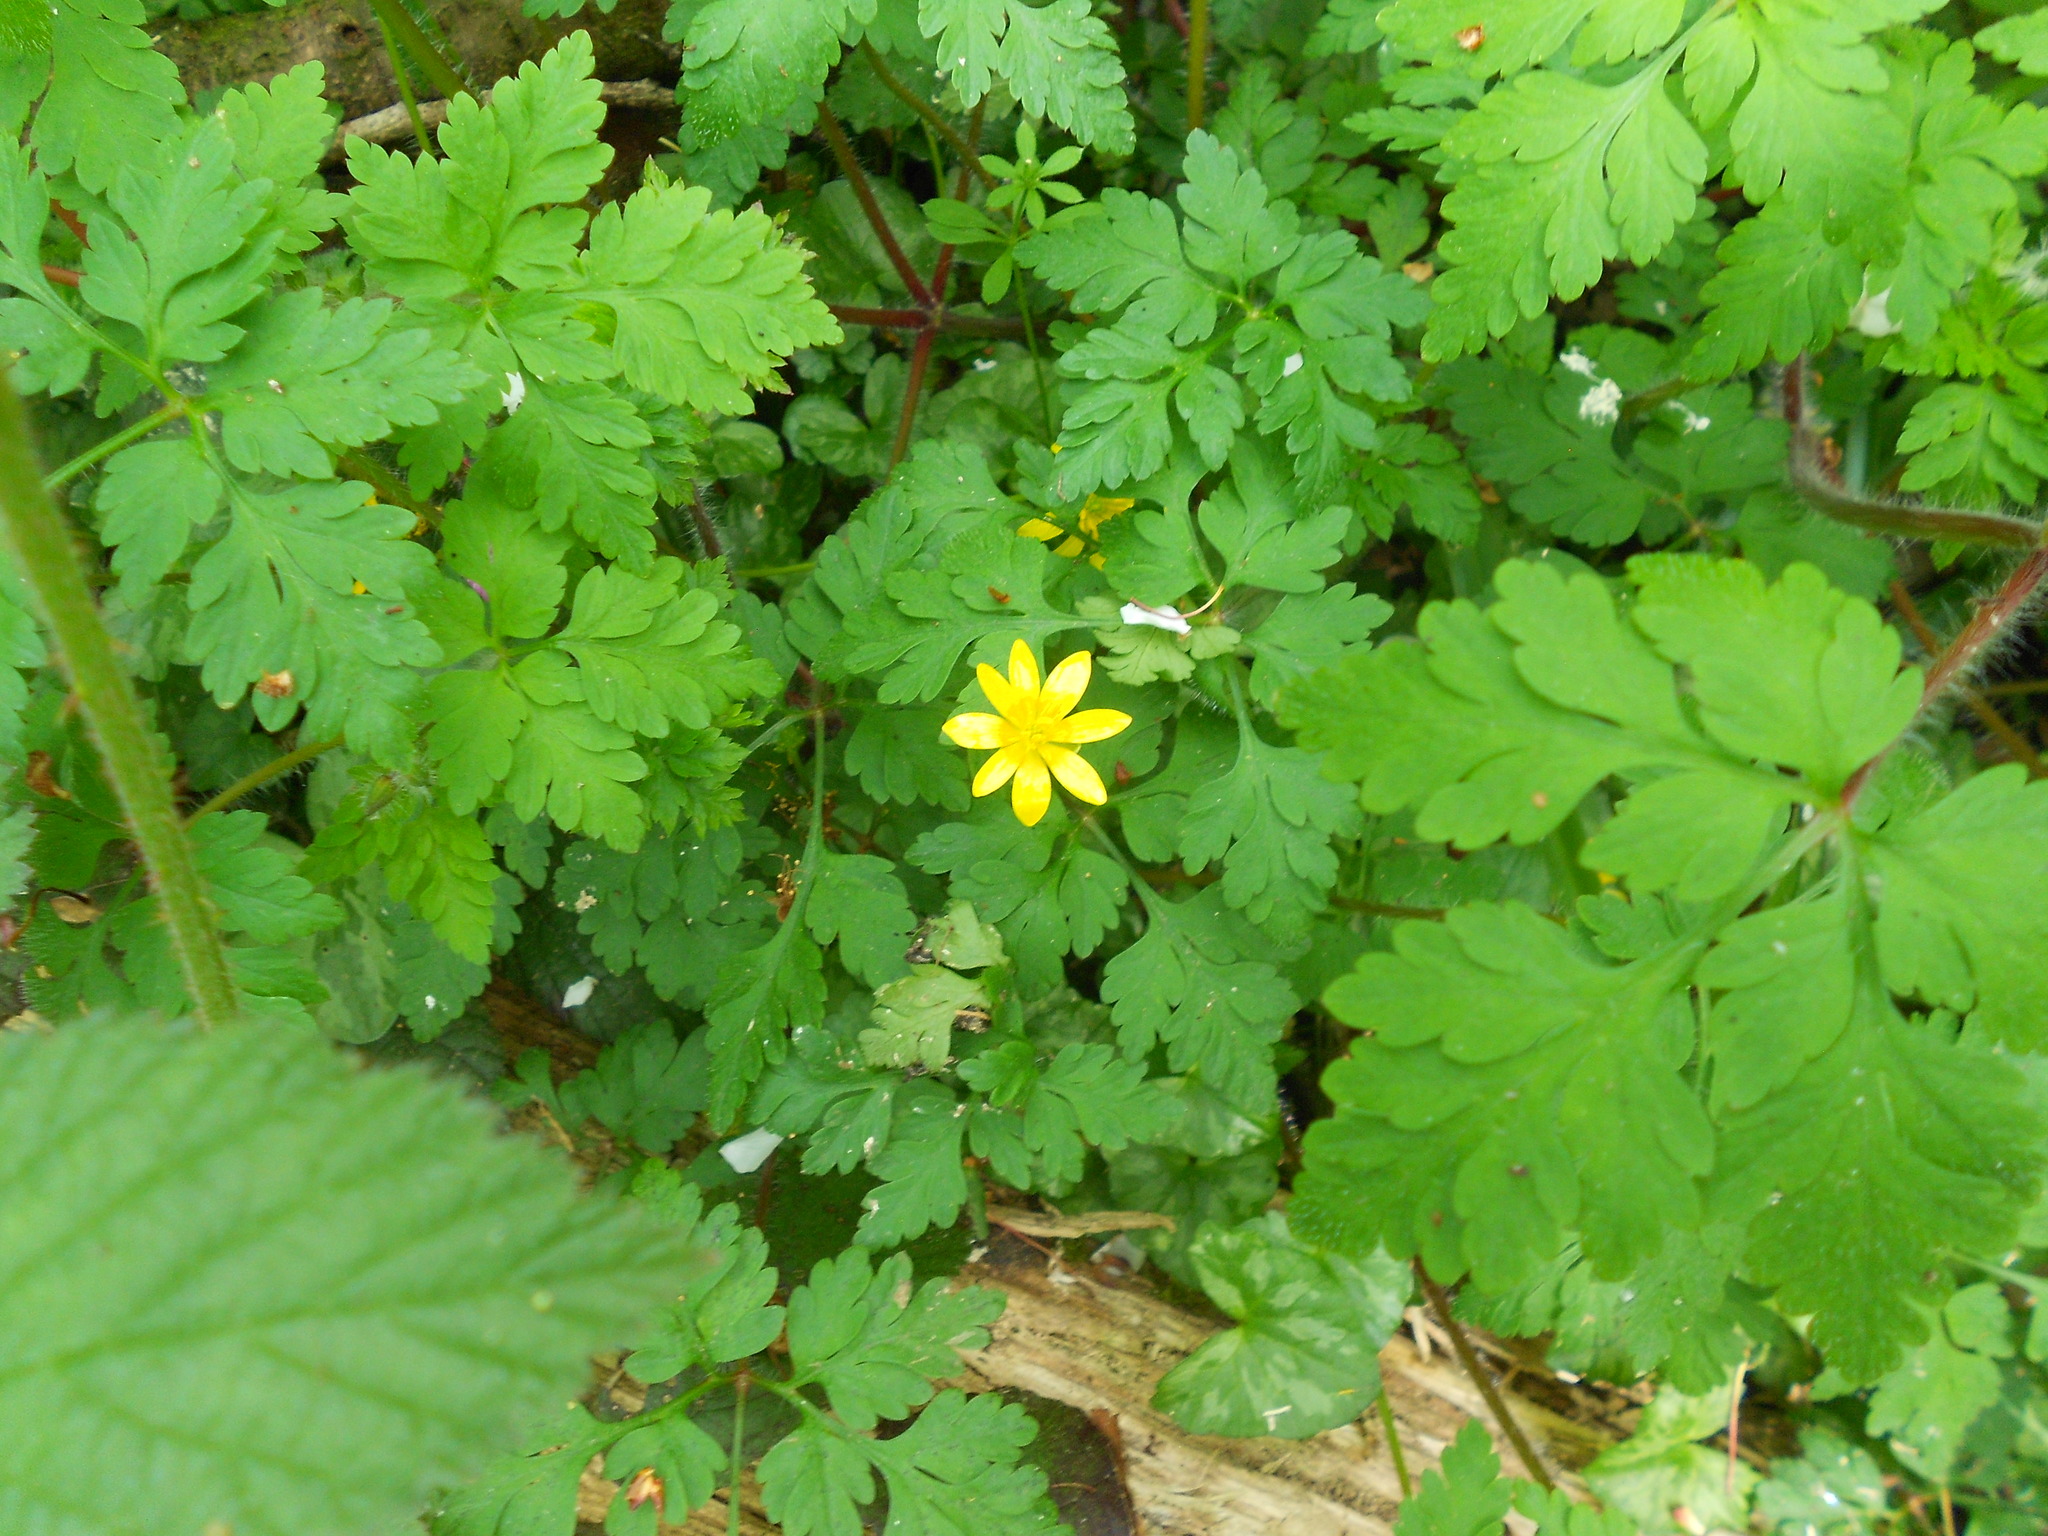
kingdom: Plantae
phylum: Tracheophyta
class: Magnoliopsida
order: Ranunculales
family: Ranunculaceae
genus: Ficaria
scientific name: Ficaria verna
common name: Lesser celandine
